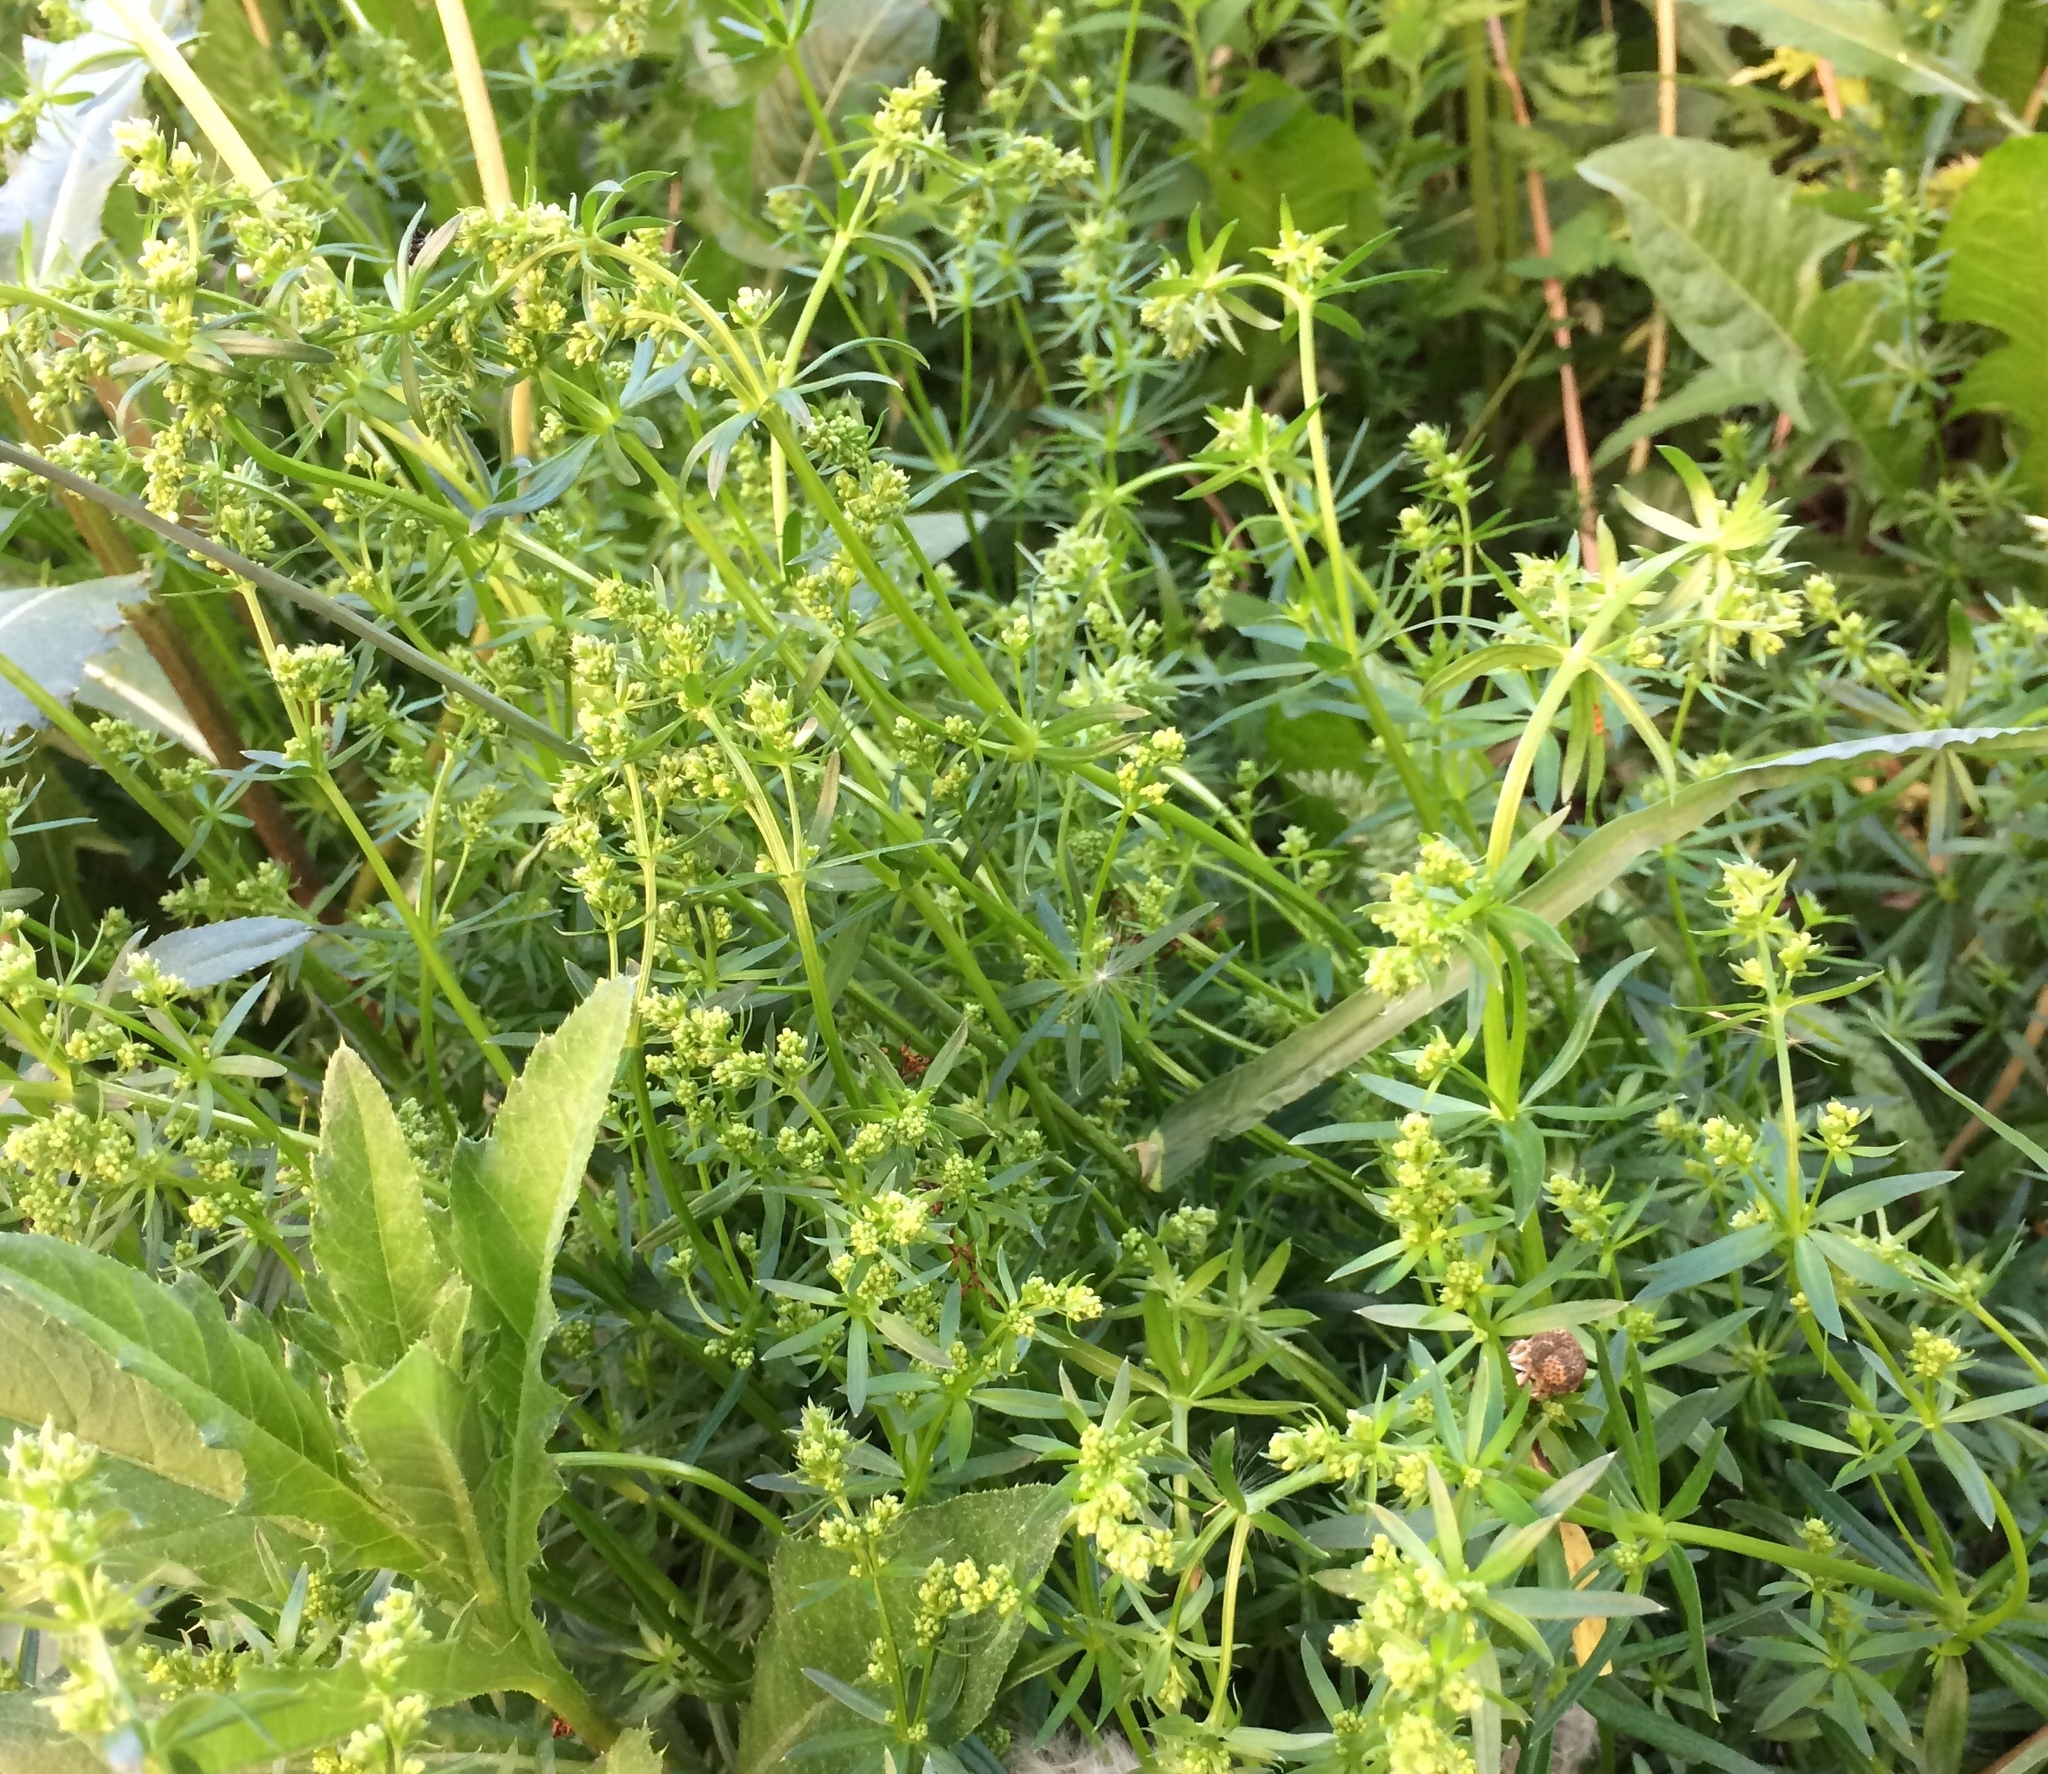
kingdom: Plantae
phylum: Tracheophyta
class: Magnoliopsida
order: Gentianales
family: Rubiaceae
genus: Galium
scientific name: Galium mollugo
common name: Hedge bedstraw
